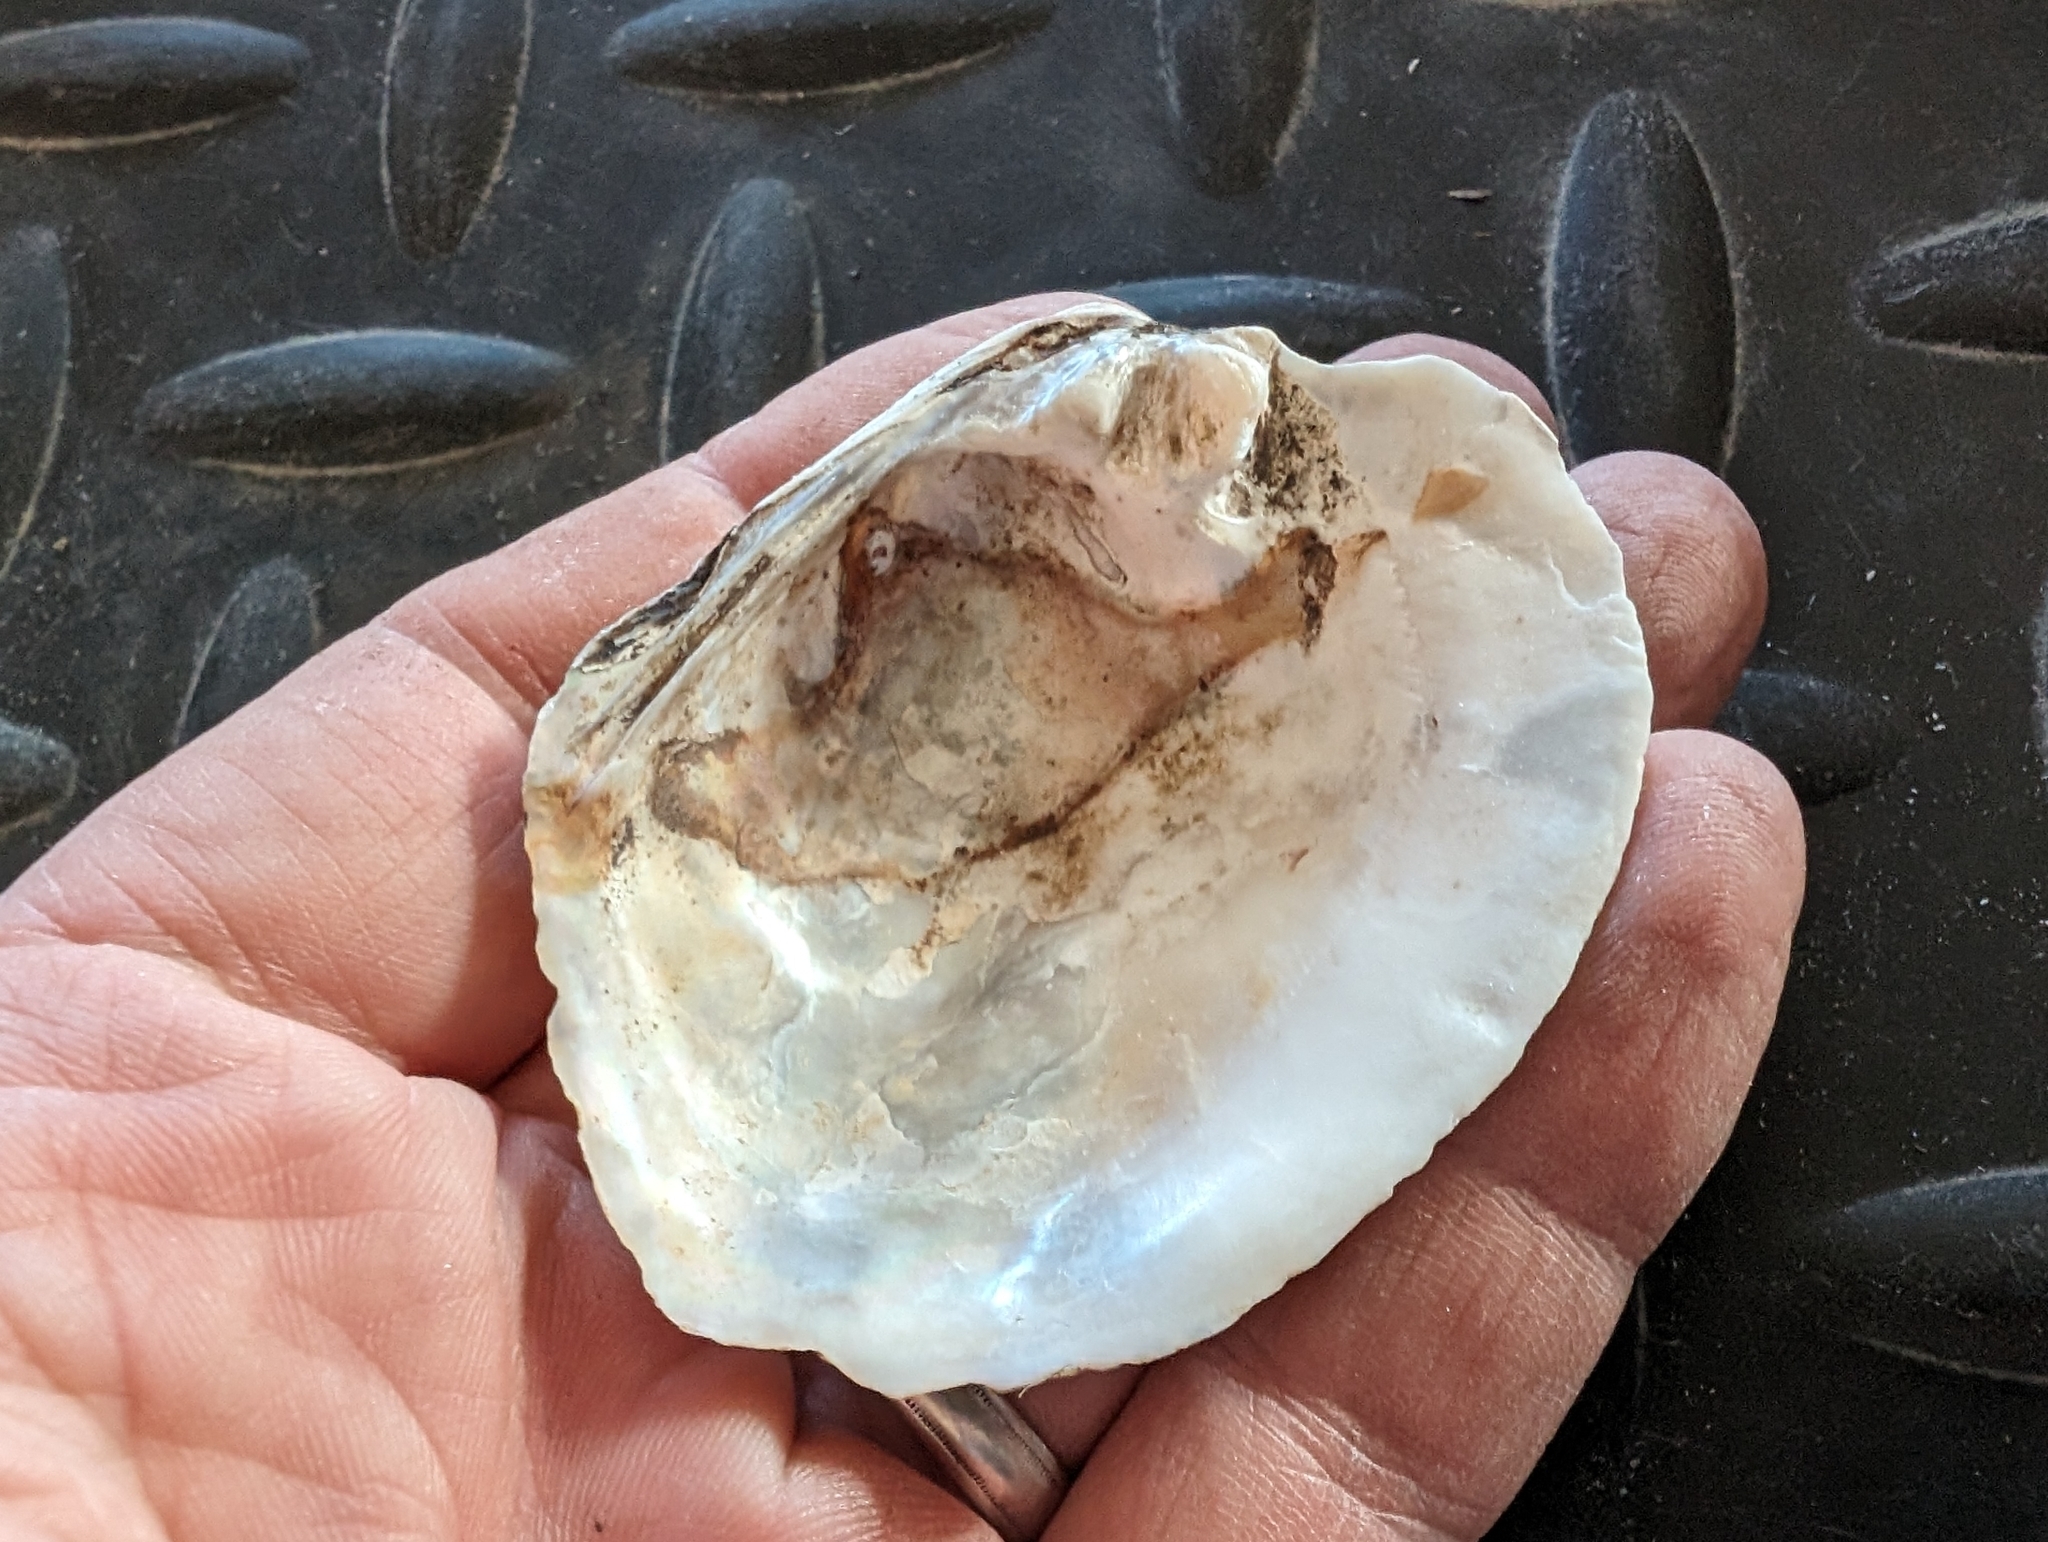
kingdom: Animalia
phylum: Mollusca
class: Bivalvia
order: Unionida
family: Unionidae
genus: Amblema
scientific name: Amblema plicata
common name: Threeridge
